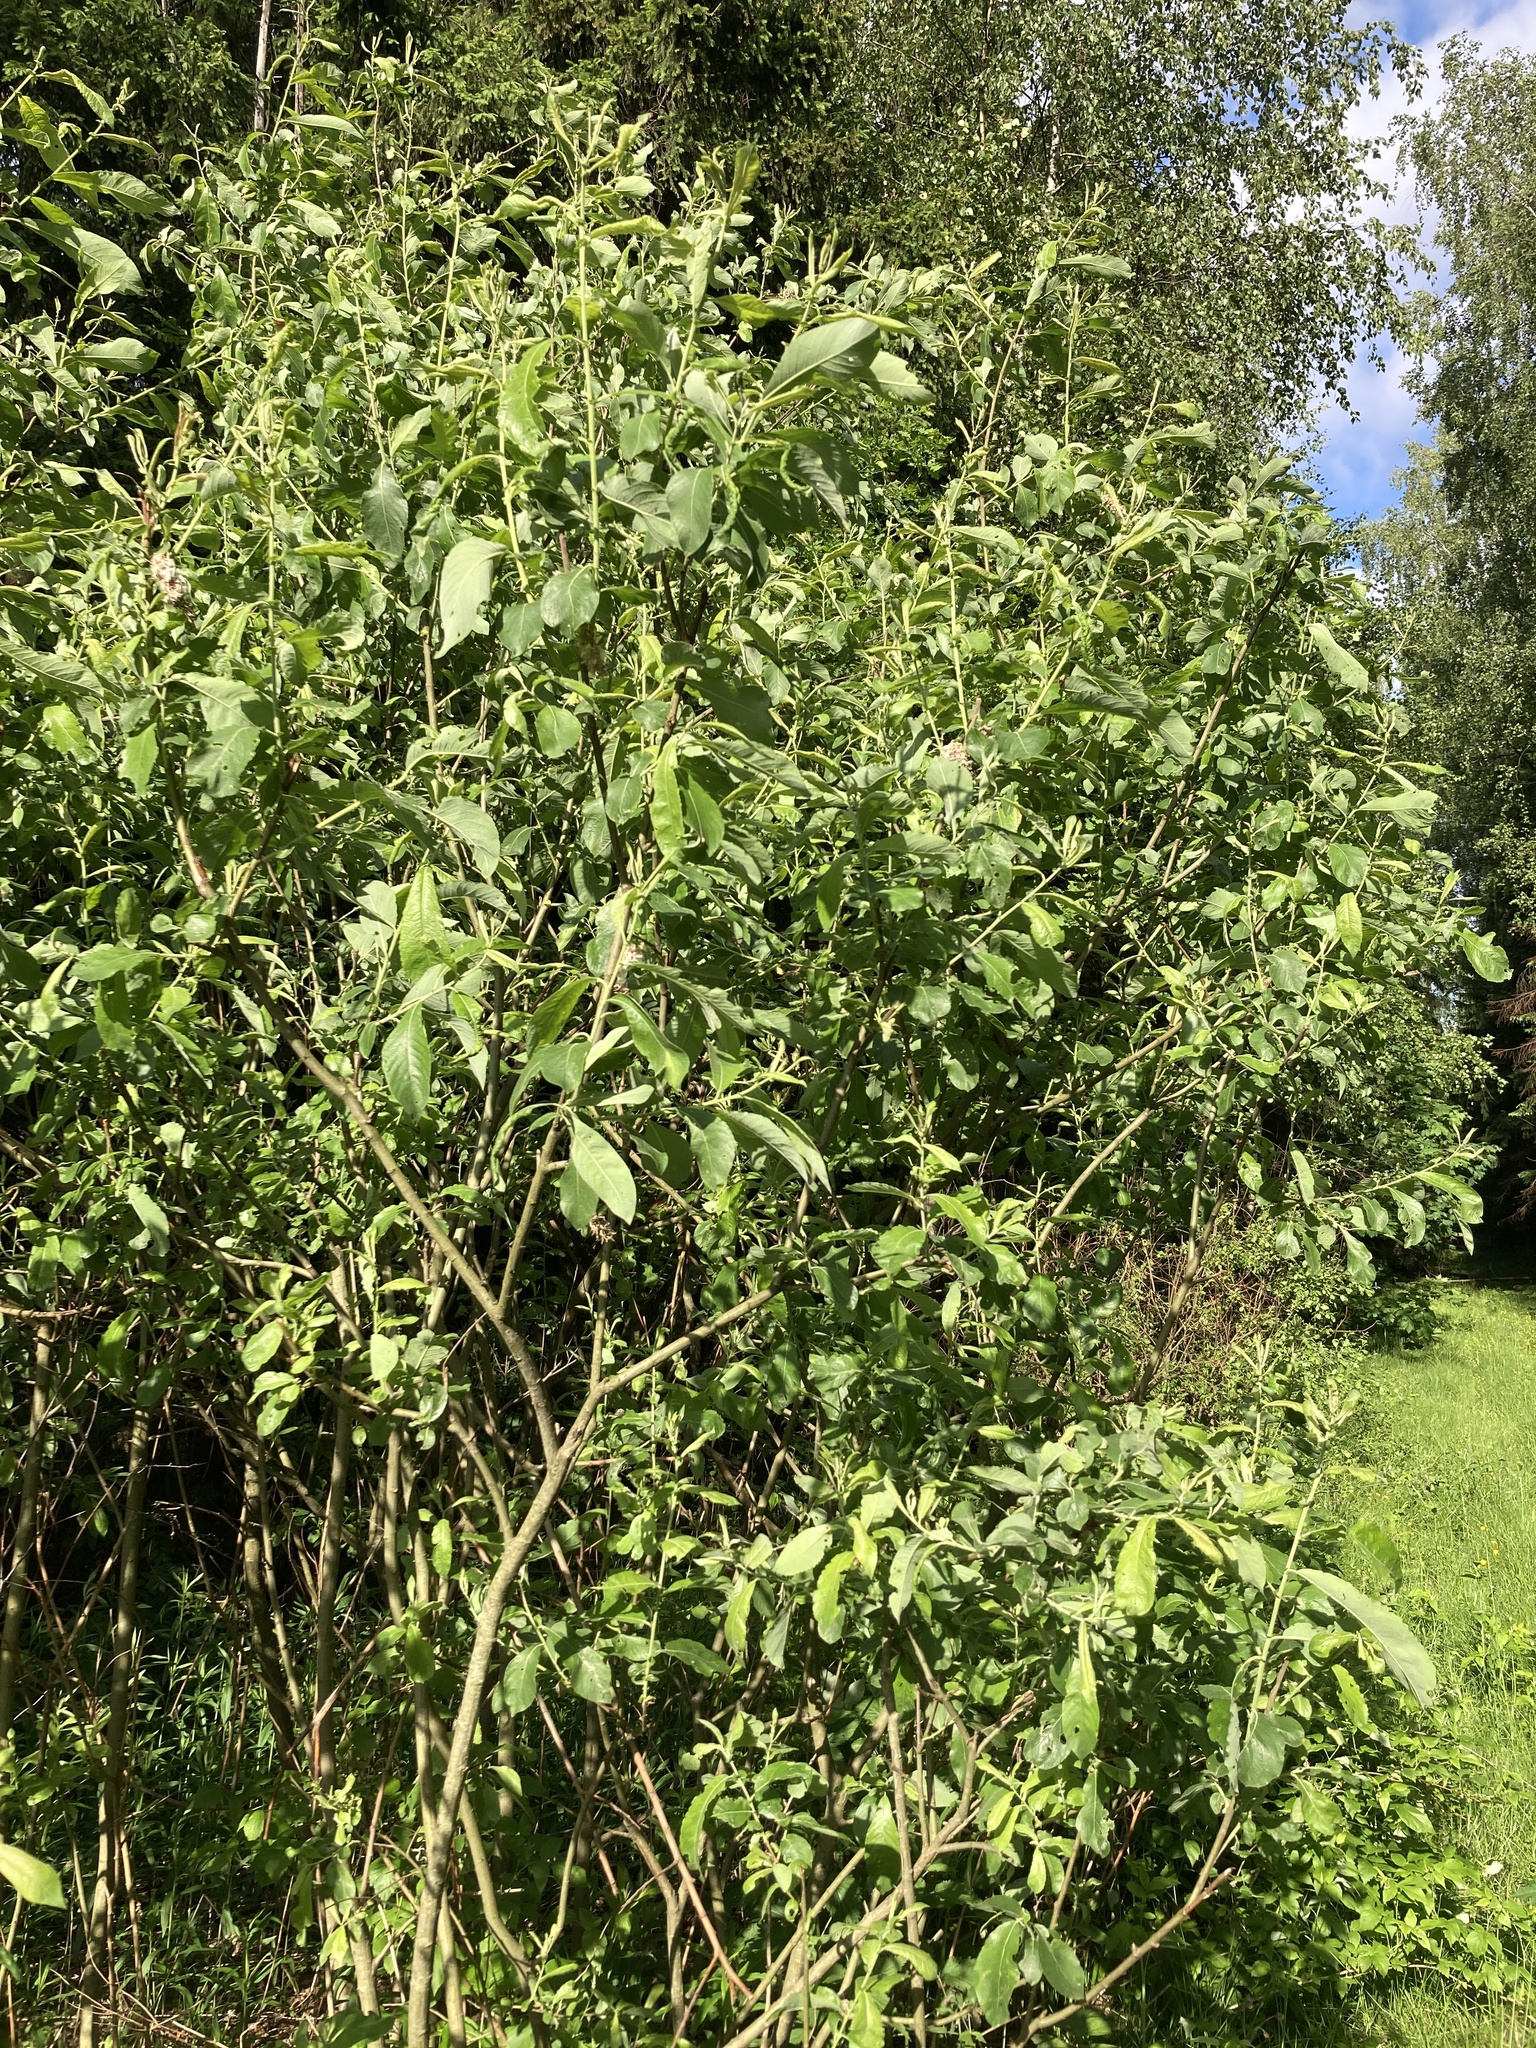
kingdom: Plantae
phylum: Tracheophyta
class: Magnoliopsida
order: Malpighiales
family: Salicaceae
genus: Salix
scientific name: Salix caprea
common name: Goat willow
